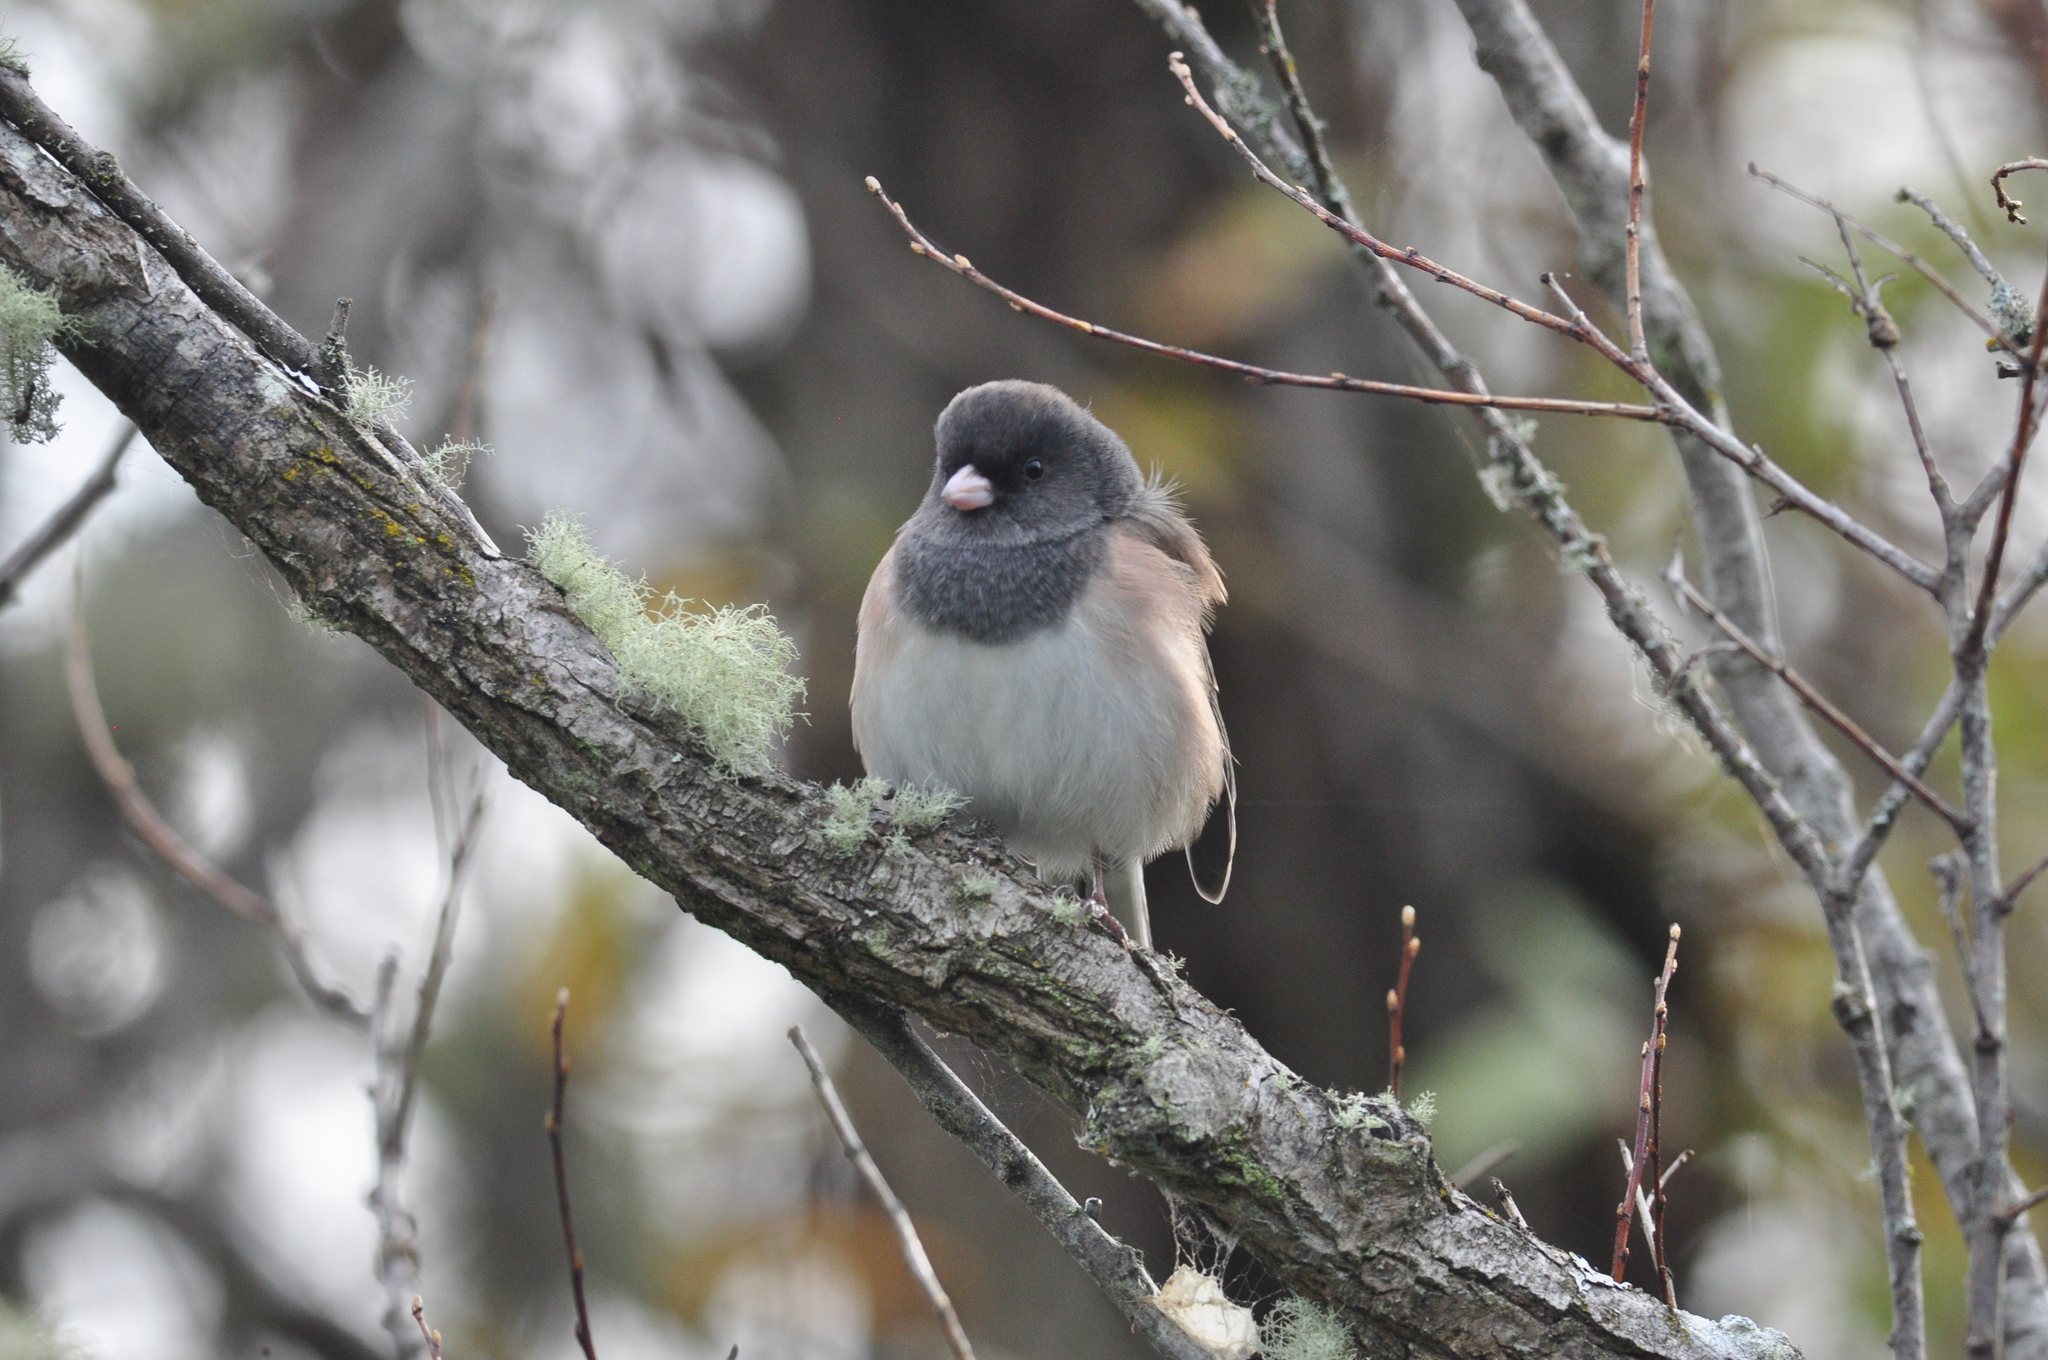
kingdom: Animalia
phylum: Chordata
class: Aves
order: Passeriformes
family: Passerellidae
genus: Junco
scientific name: Junco hyemalis
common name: Dark-eyed junco
